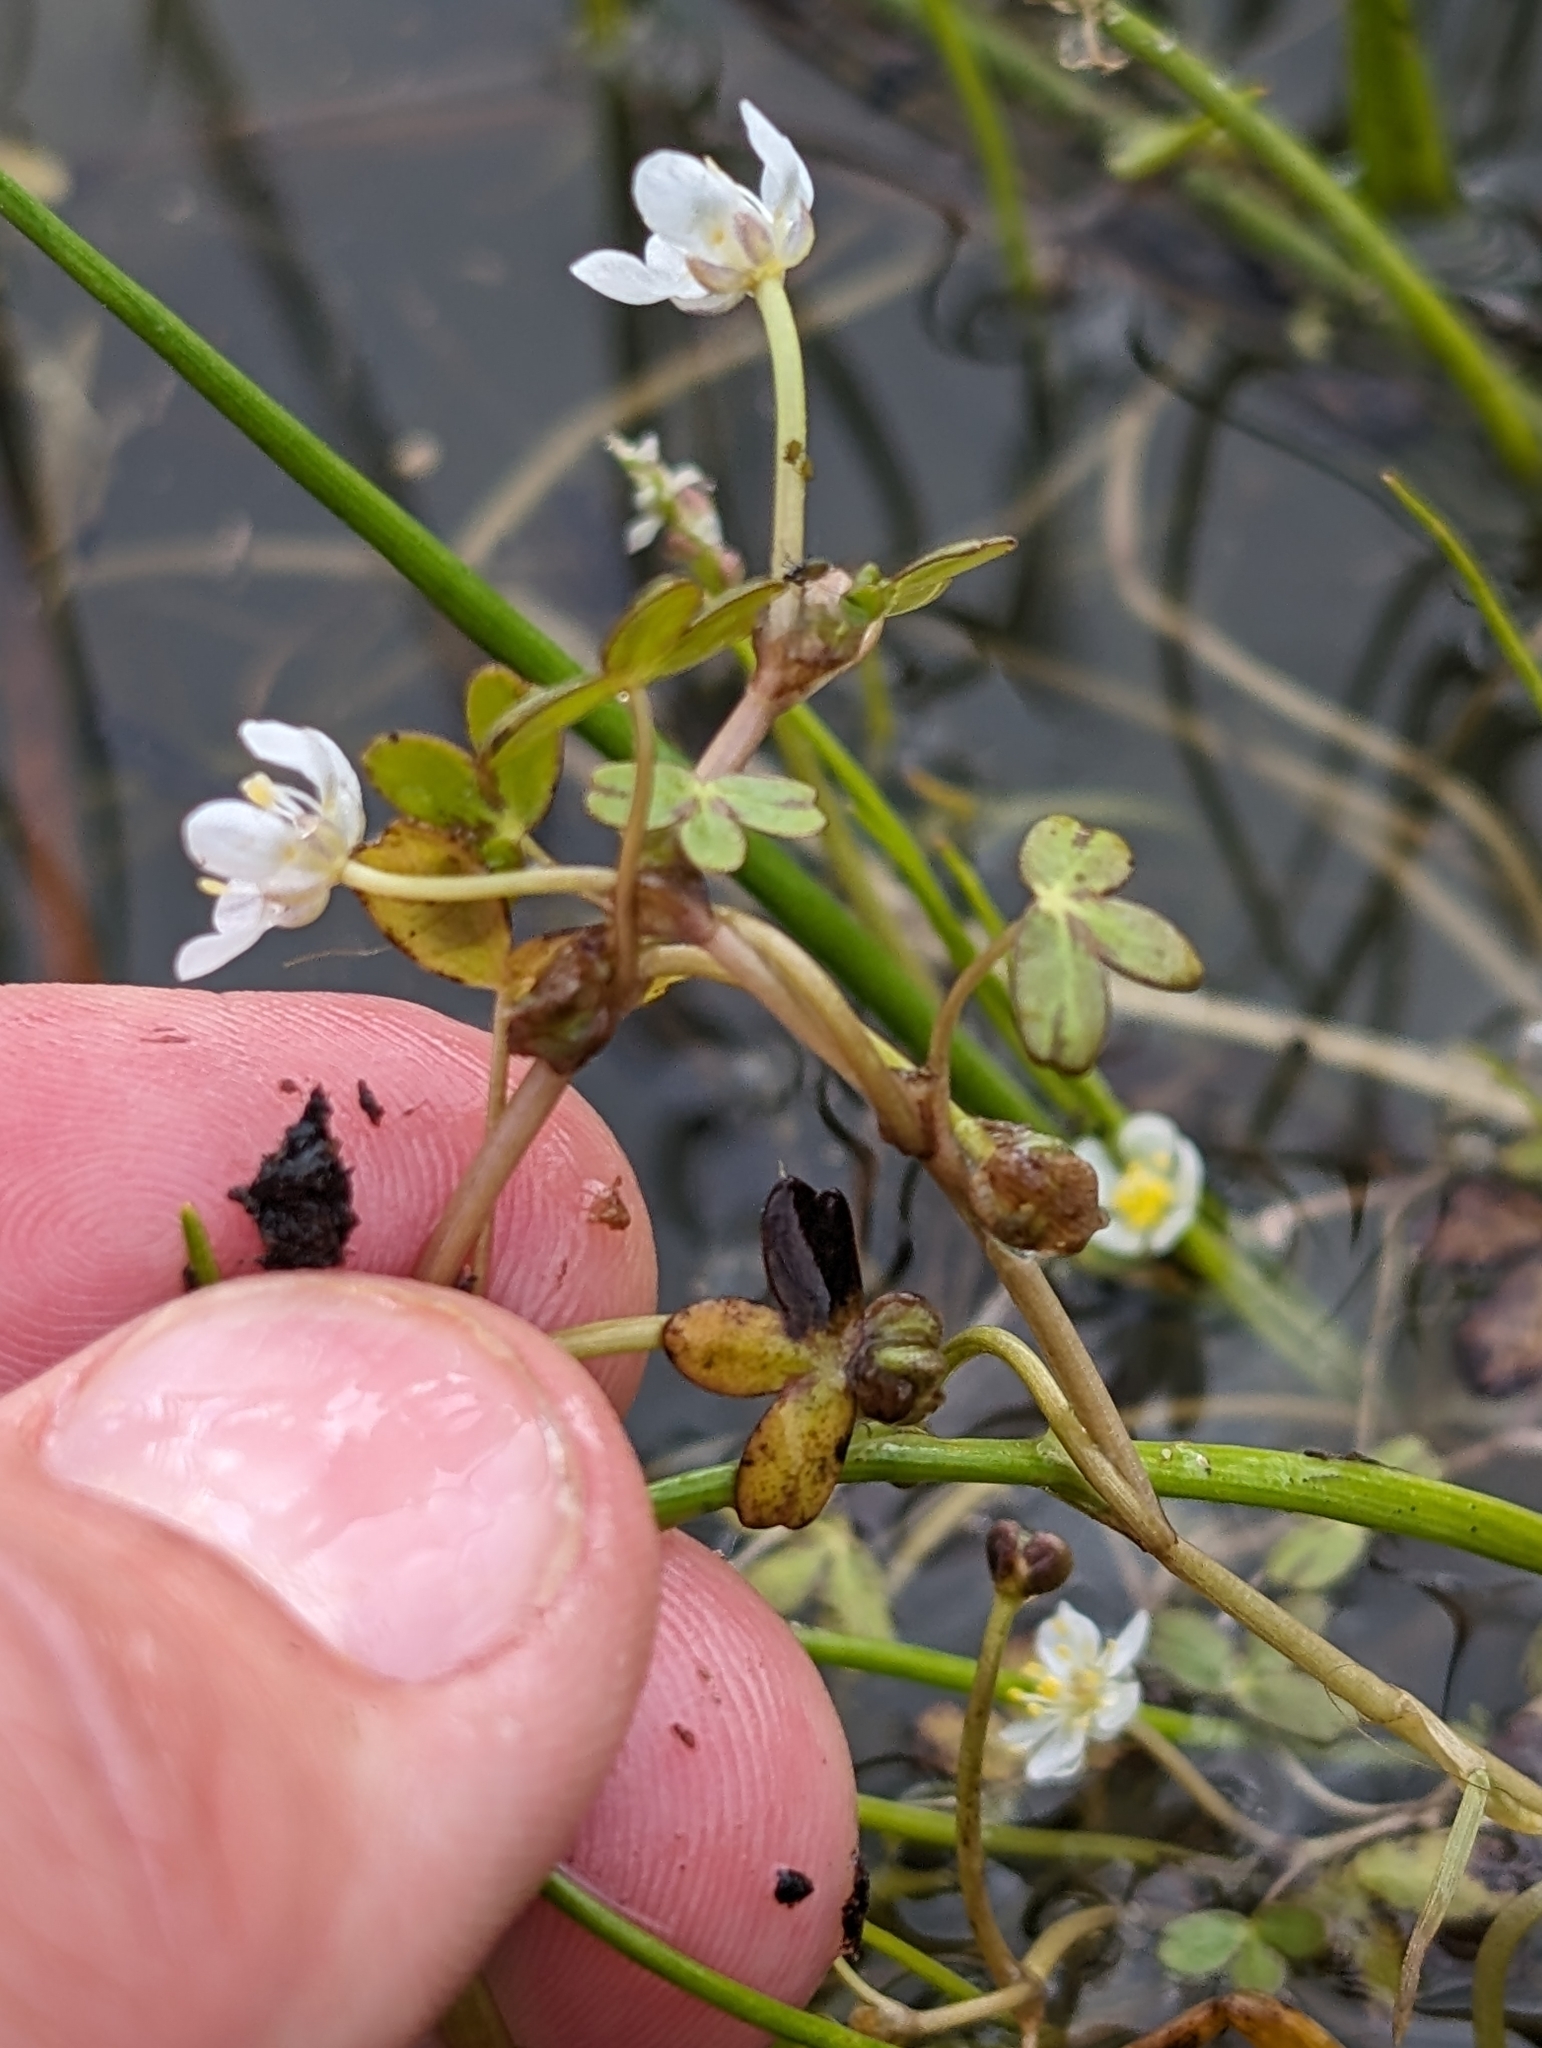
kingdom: Plantae
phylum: Tracheophyta
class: Magnoliopsida
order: Ranunculales
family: Ranunculaceae
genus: Ranunculus
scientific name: Ranunculus lobbii
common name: Lobb's buttercup
